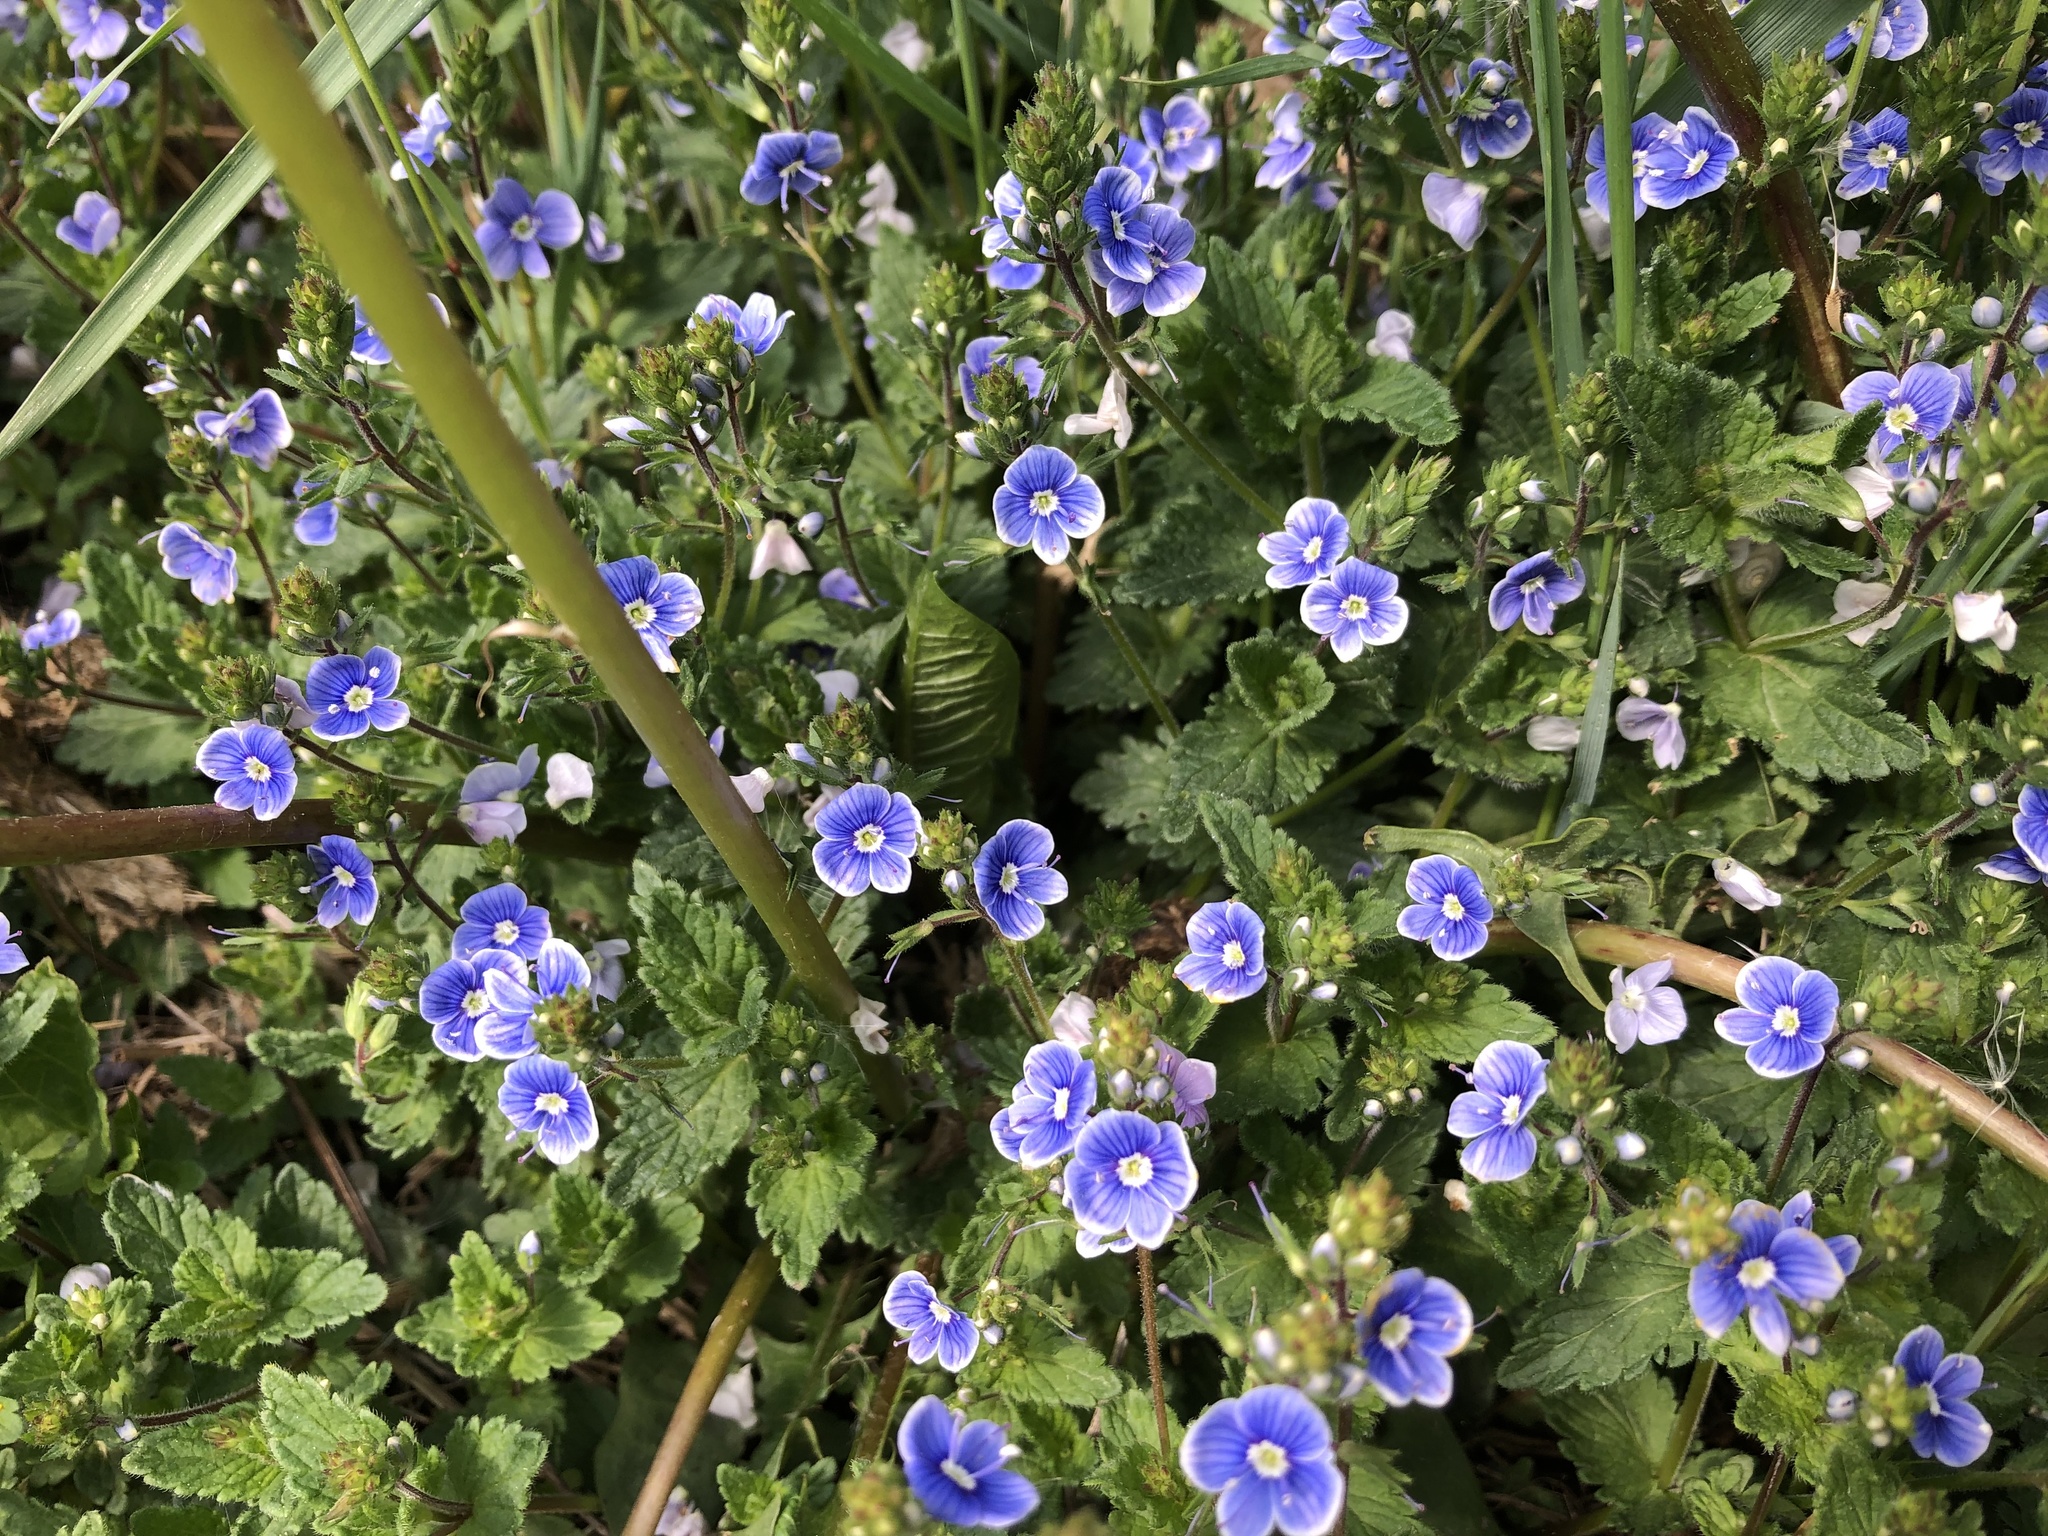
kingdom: Plantae
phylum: Tracheophyta
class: Magnoliopsida
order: Lamiales
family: Plantaginaceae
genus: Veronica
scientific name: Veronica chamaedrys
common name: Germander speedwell
